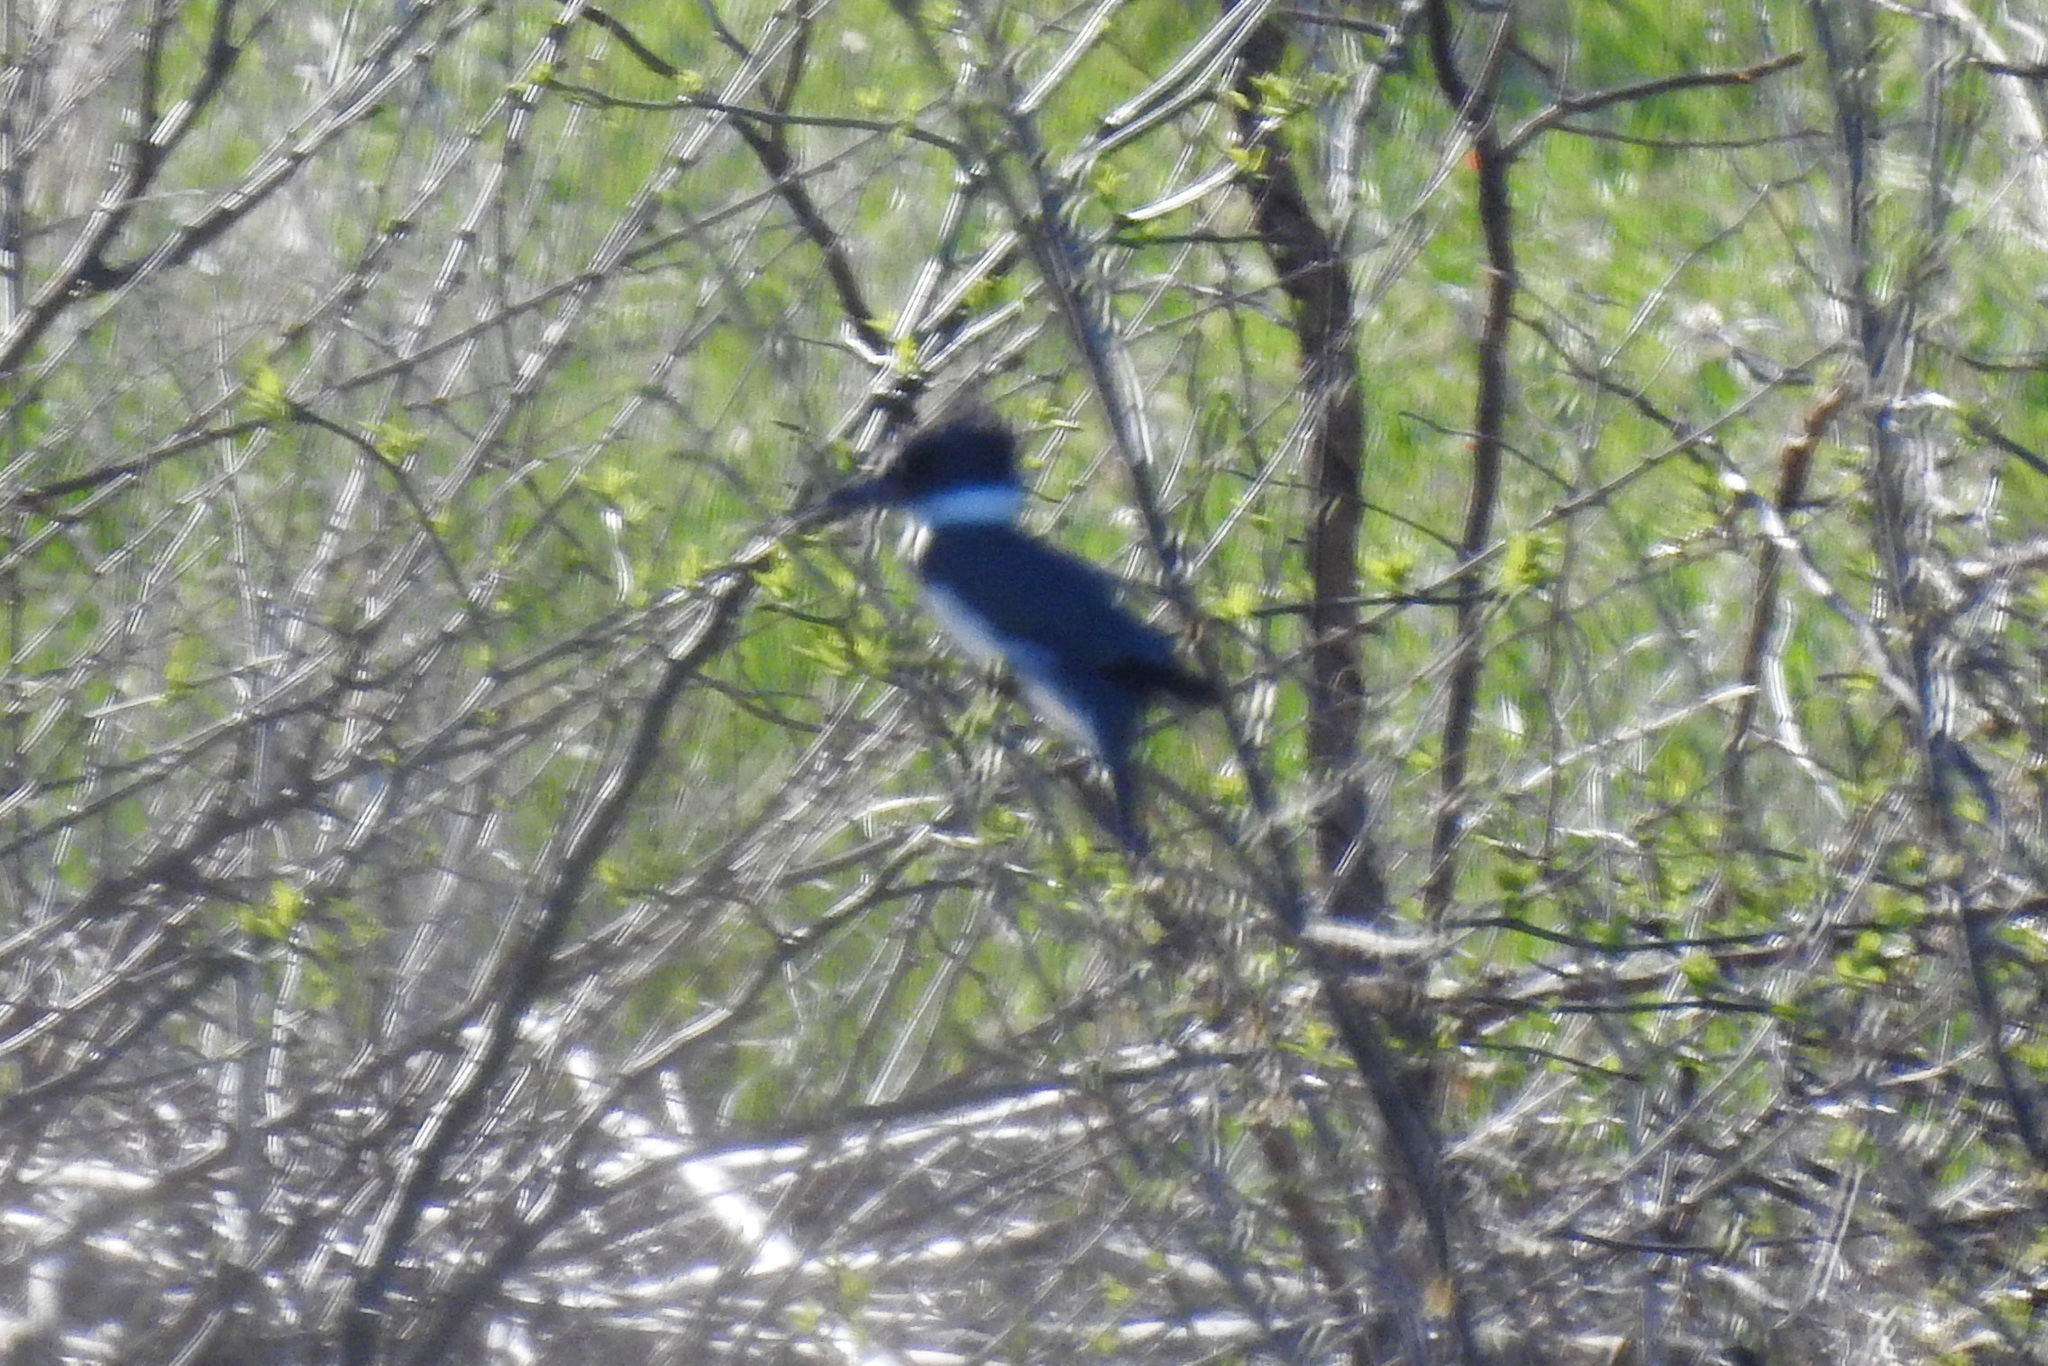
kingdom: Animalia
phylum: Chordata
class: Aves
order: Coraciiformes
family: Alcedinidae
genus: Megaceryle
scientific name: Megaceryle alcyon
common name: Belted kingfisher
